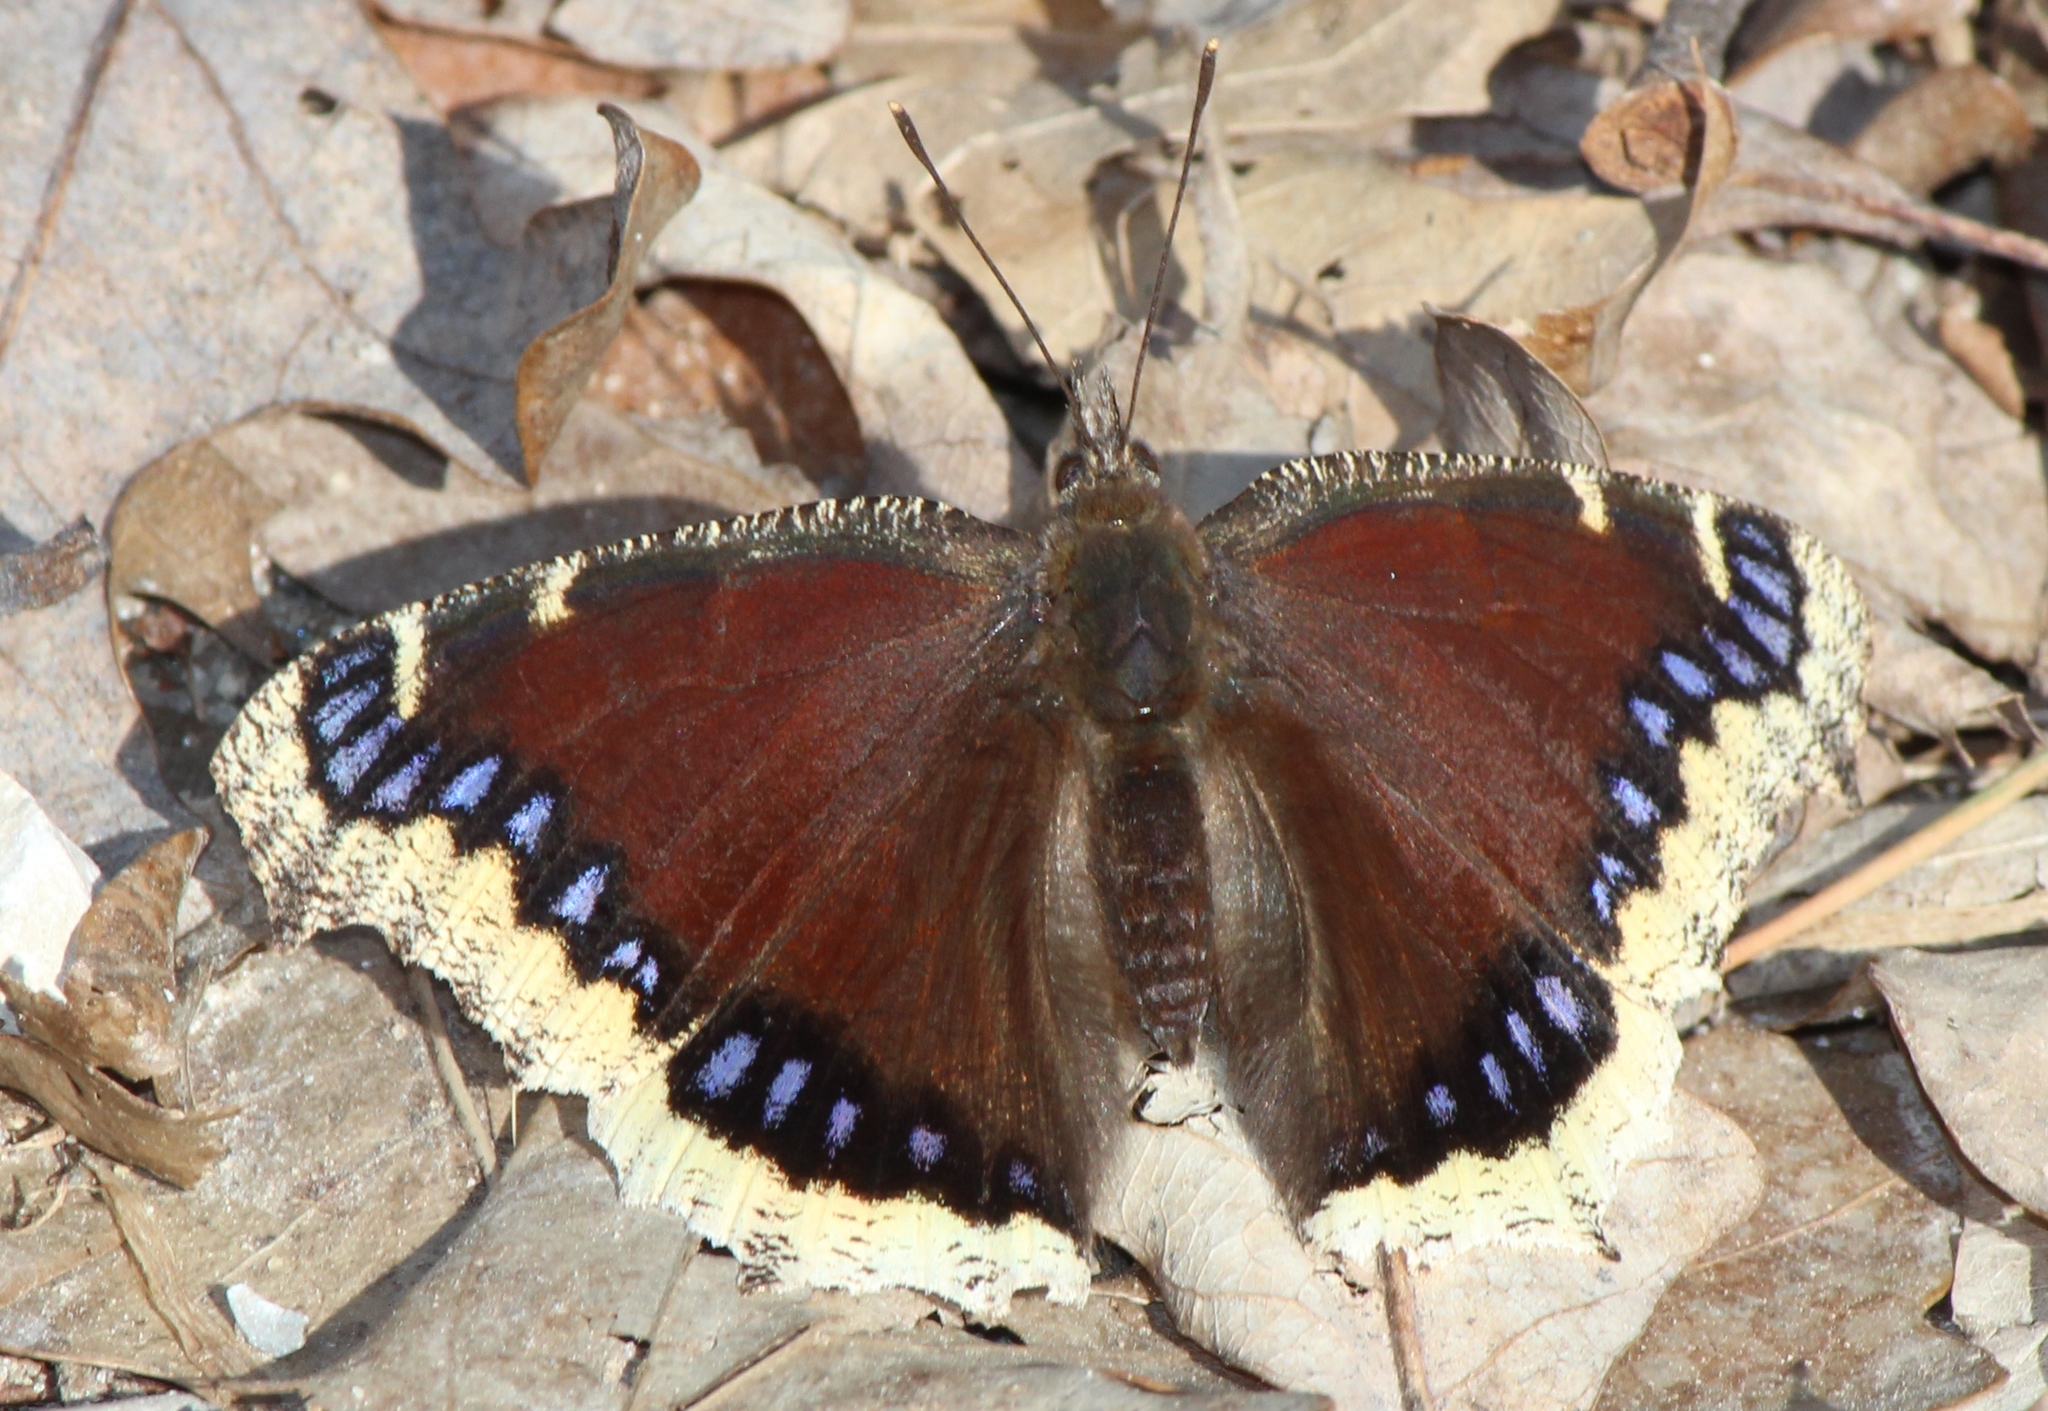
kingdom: Animalia
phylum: Arthropoda
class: Insecta
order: Lepidoptera
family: Nymphalidae
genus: Nymphalis
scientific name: Nymphalis antiopa
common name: Camberwell beauty
